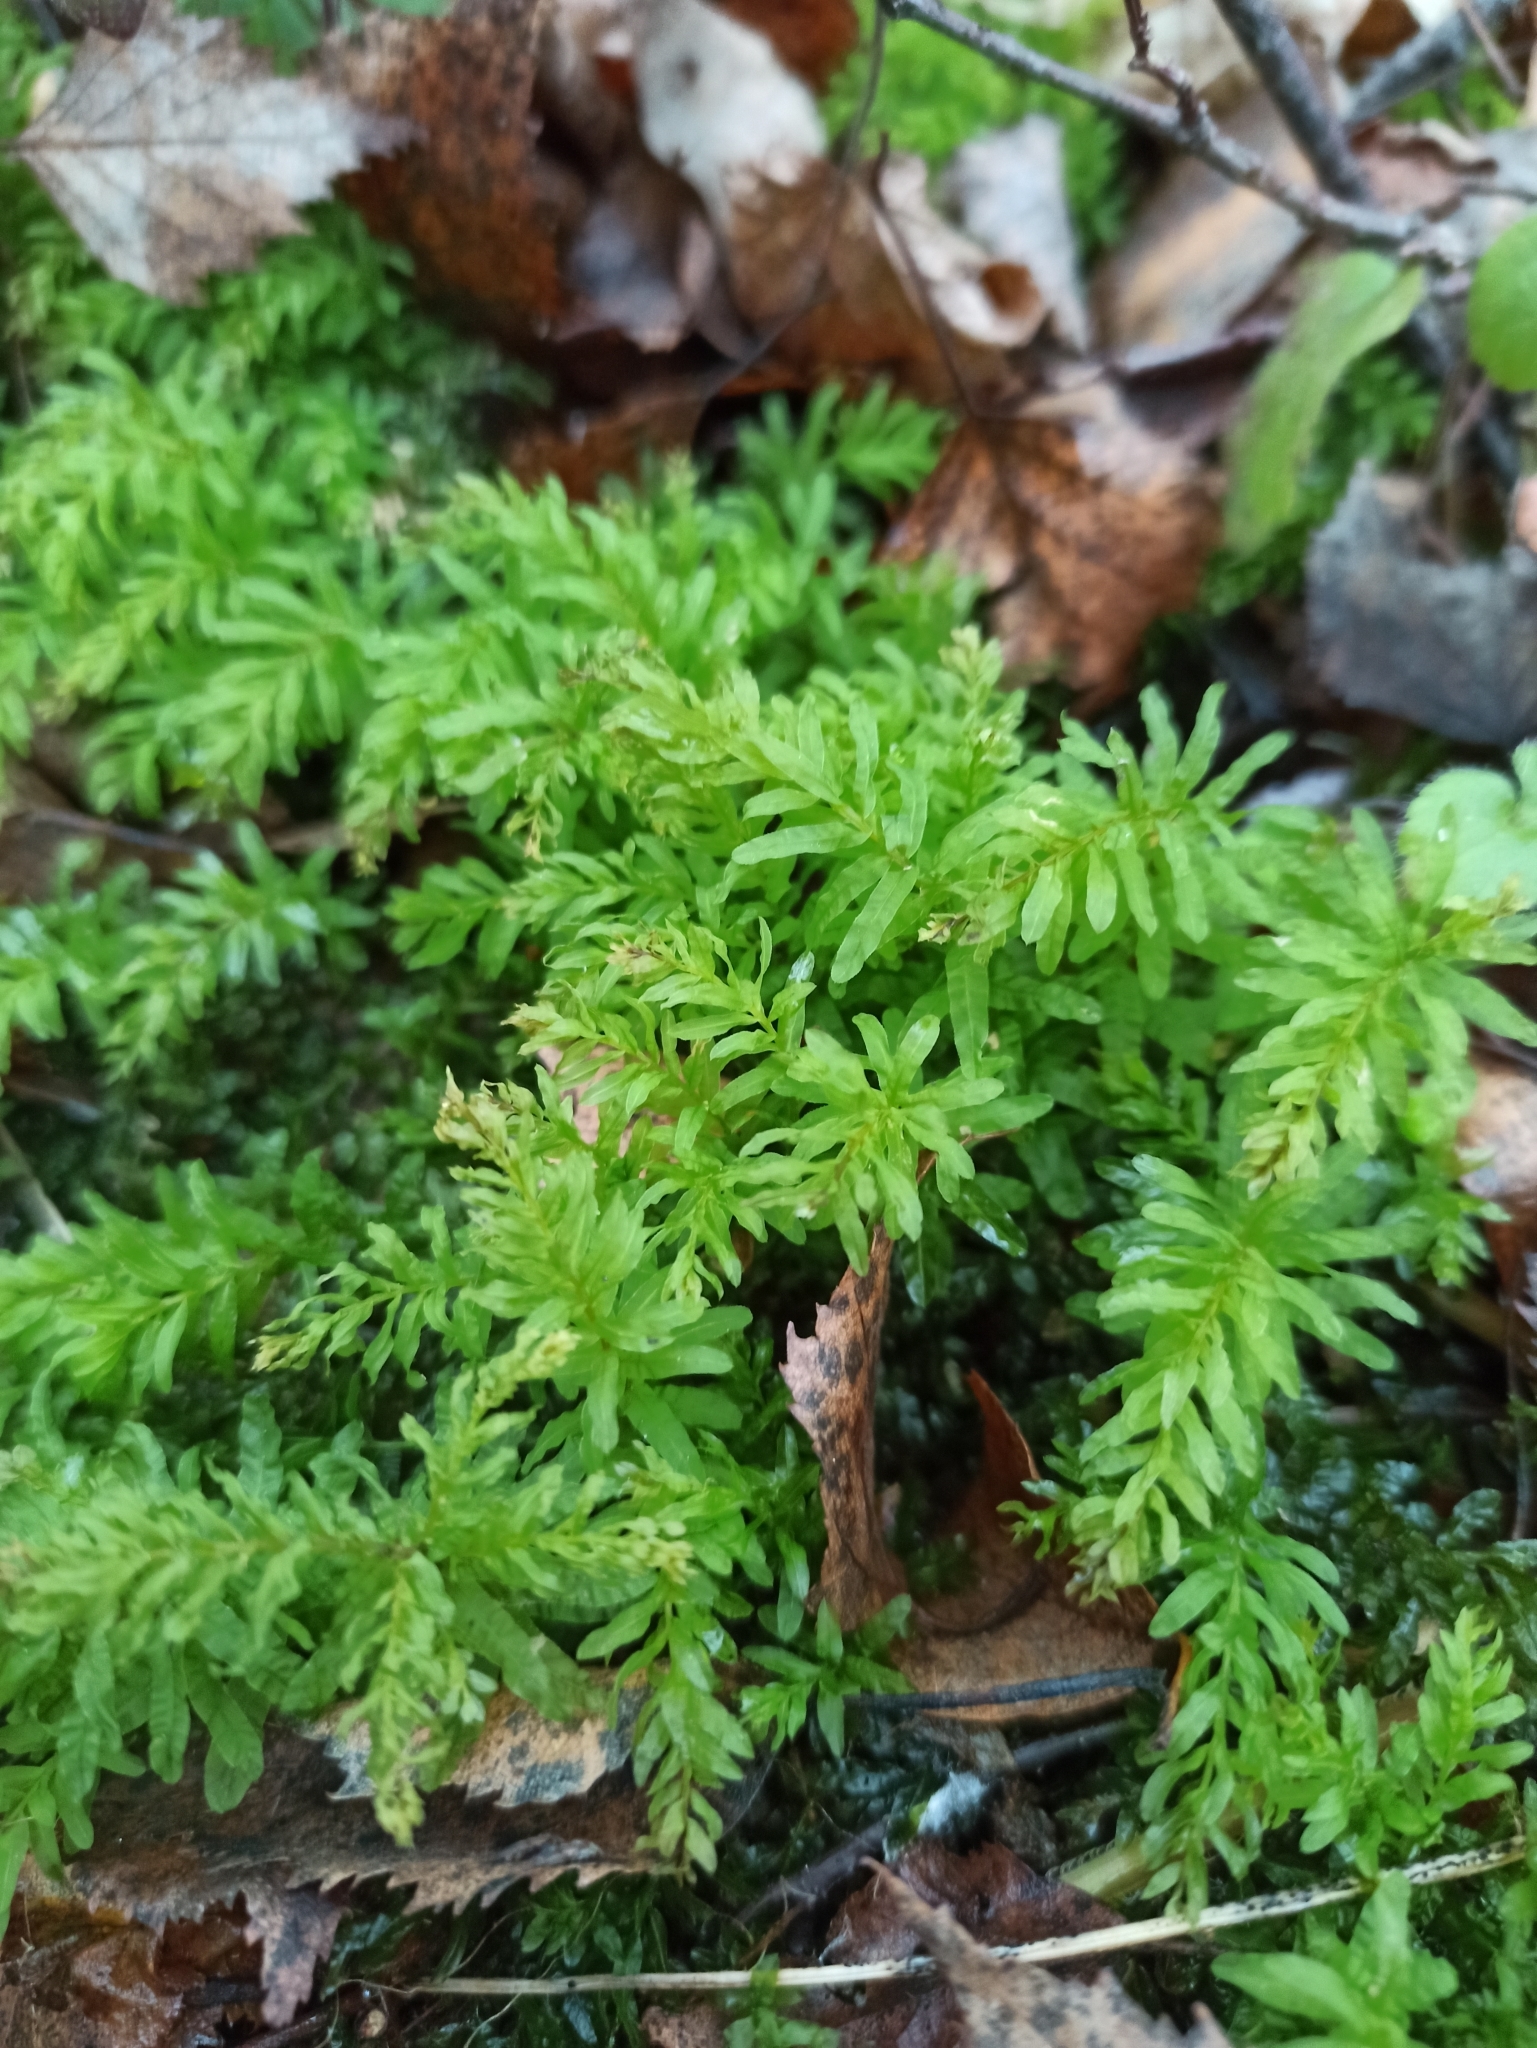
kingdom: Plantae
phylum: Bryophyta
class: Bryopsida
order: Bryales
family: Mniaceae
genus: Plagiomnium
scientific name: Plagiomnium undulatum
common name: Hart's-tongue thyme-moss
